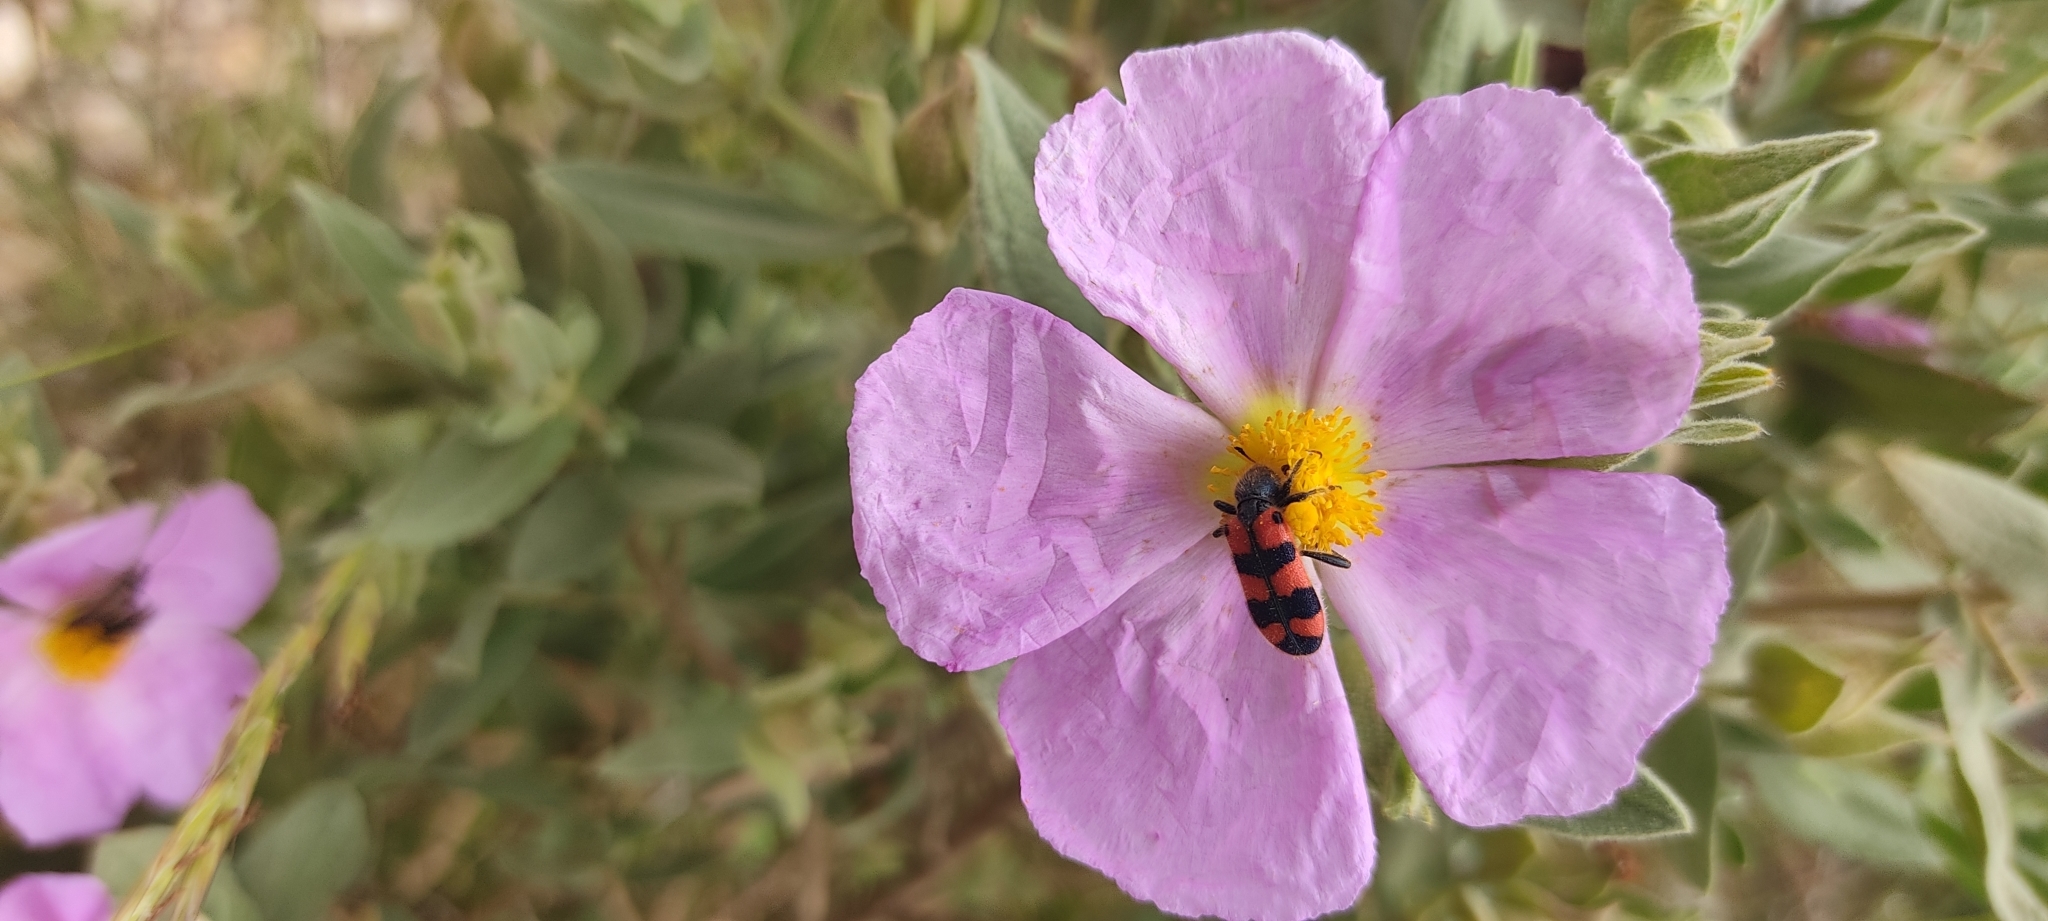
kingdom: Animalia
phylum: Arthropoda
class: Insecta
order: Coleoptera
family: Cleridae
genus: Trichodes
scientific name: Trichodes leucopsideus
